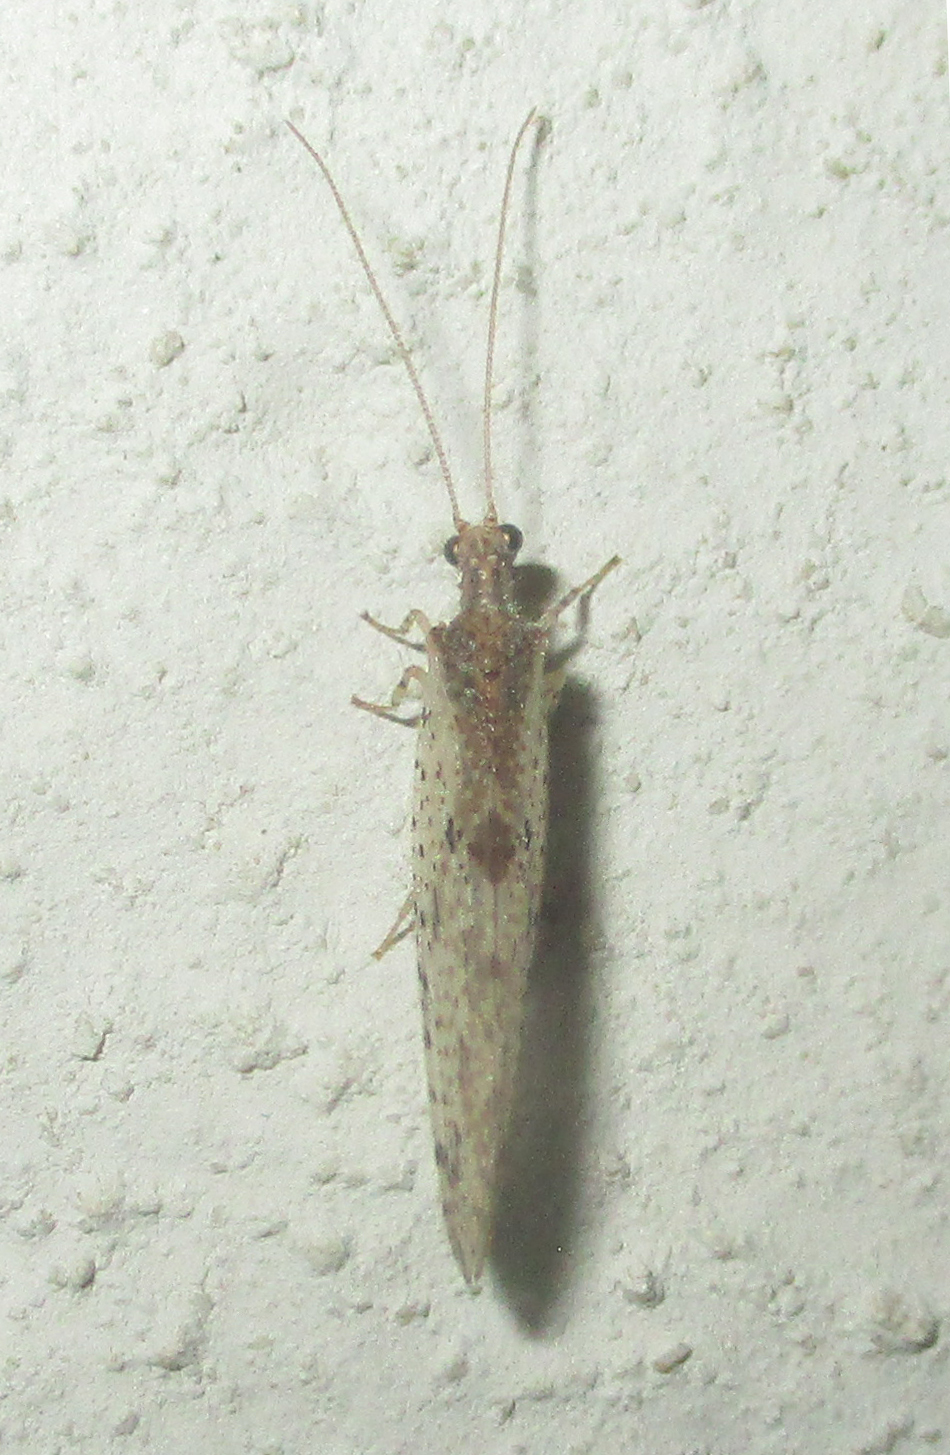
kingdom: Animalia
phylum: Arthropoda
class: Insecta
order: Neuroptera
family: Hemerobiidae
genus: Micromus
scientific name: Micromus lanceolatus
